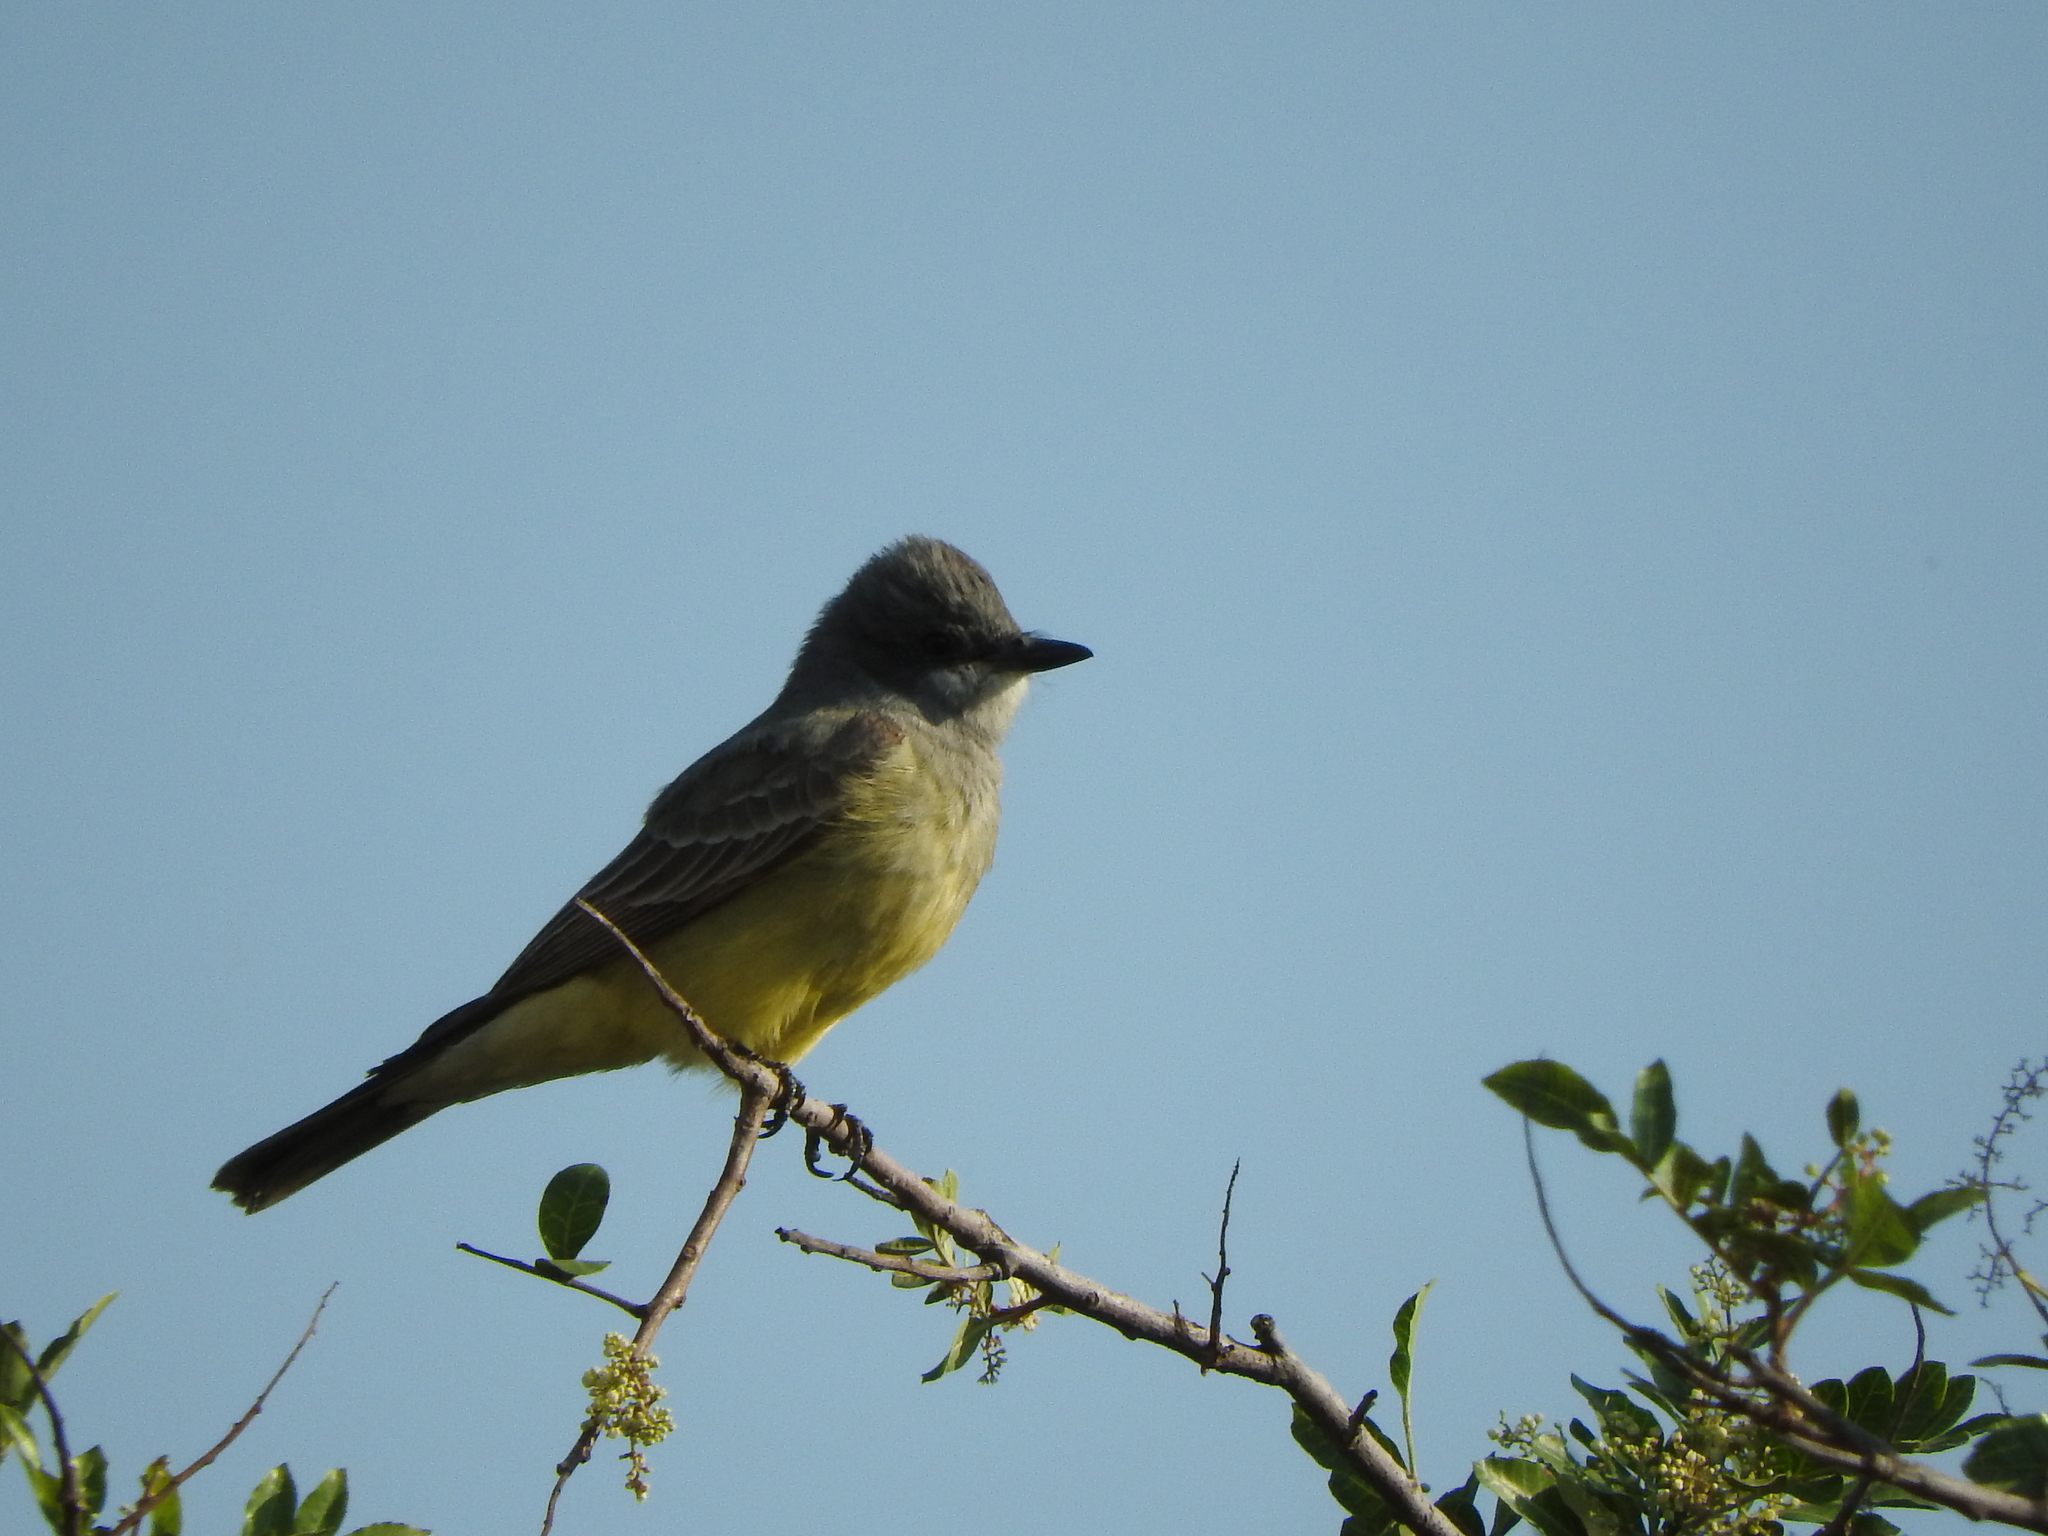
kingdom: Animalia
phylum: Chordata
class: Aves
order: Passeriformes
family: Tyrannidae
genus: Tyrannus
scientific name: Tyrannus vociferans
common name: Cassin's kingbird
